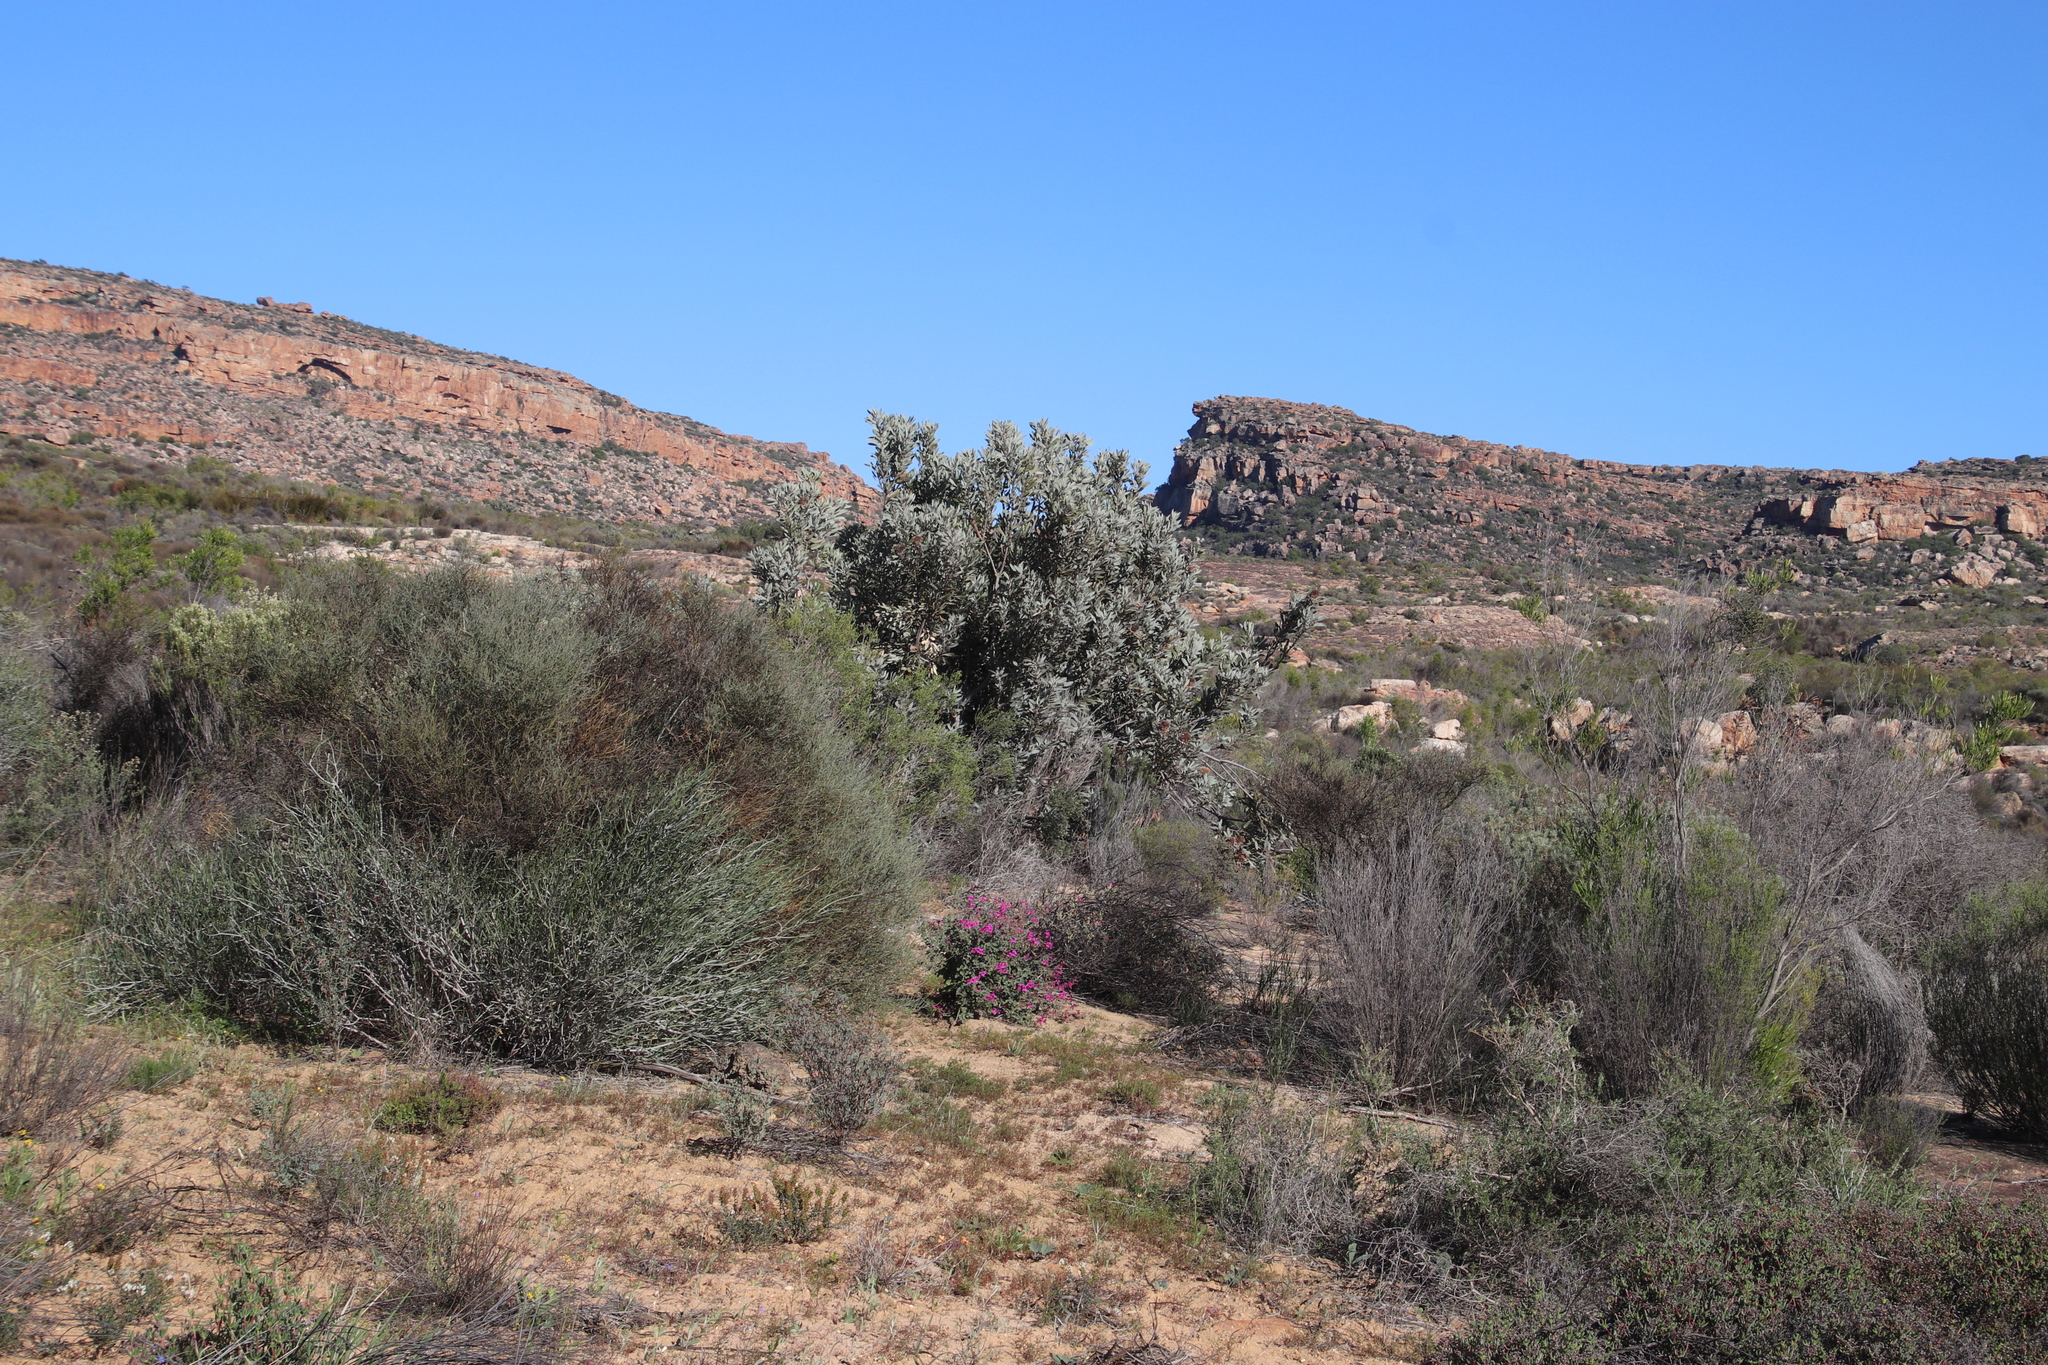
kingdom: Plantae
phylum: Tracheophyta
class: Magnoliopsida
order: Proteales
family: Proteaceae
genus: Protea
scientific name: Protea laurifolia
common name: Grey-leaf sugarbsh
